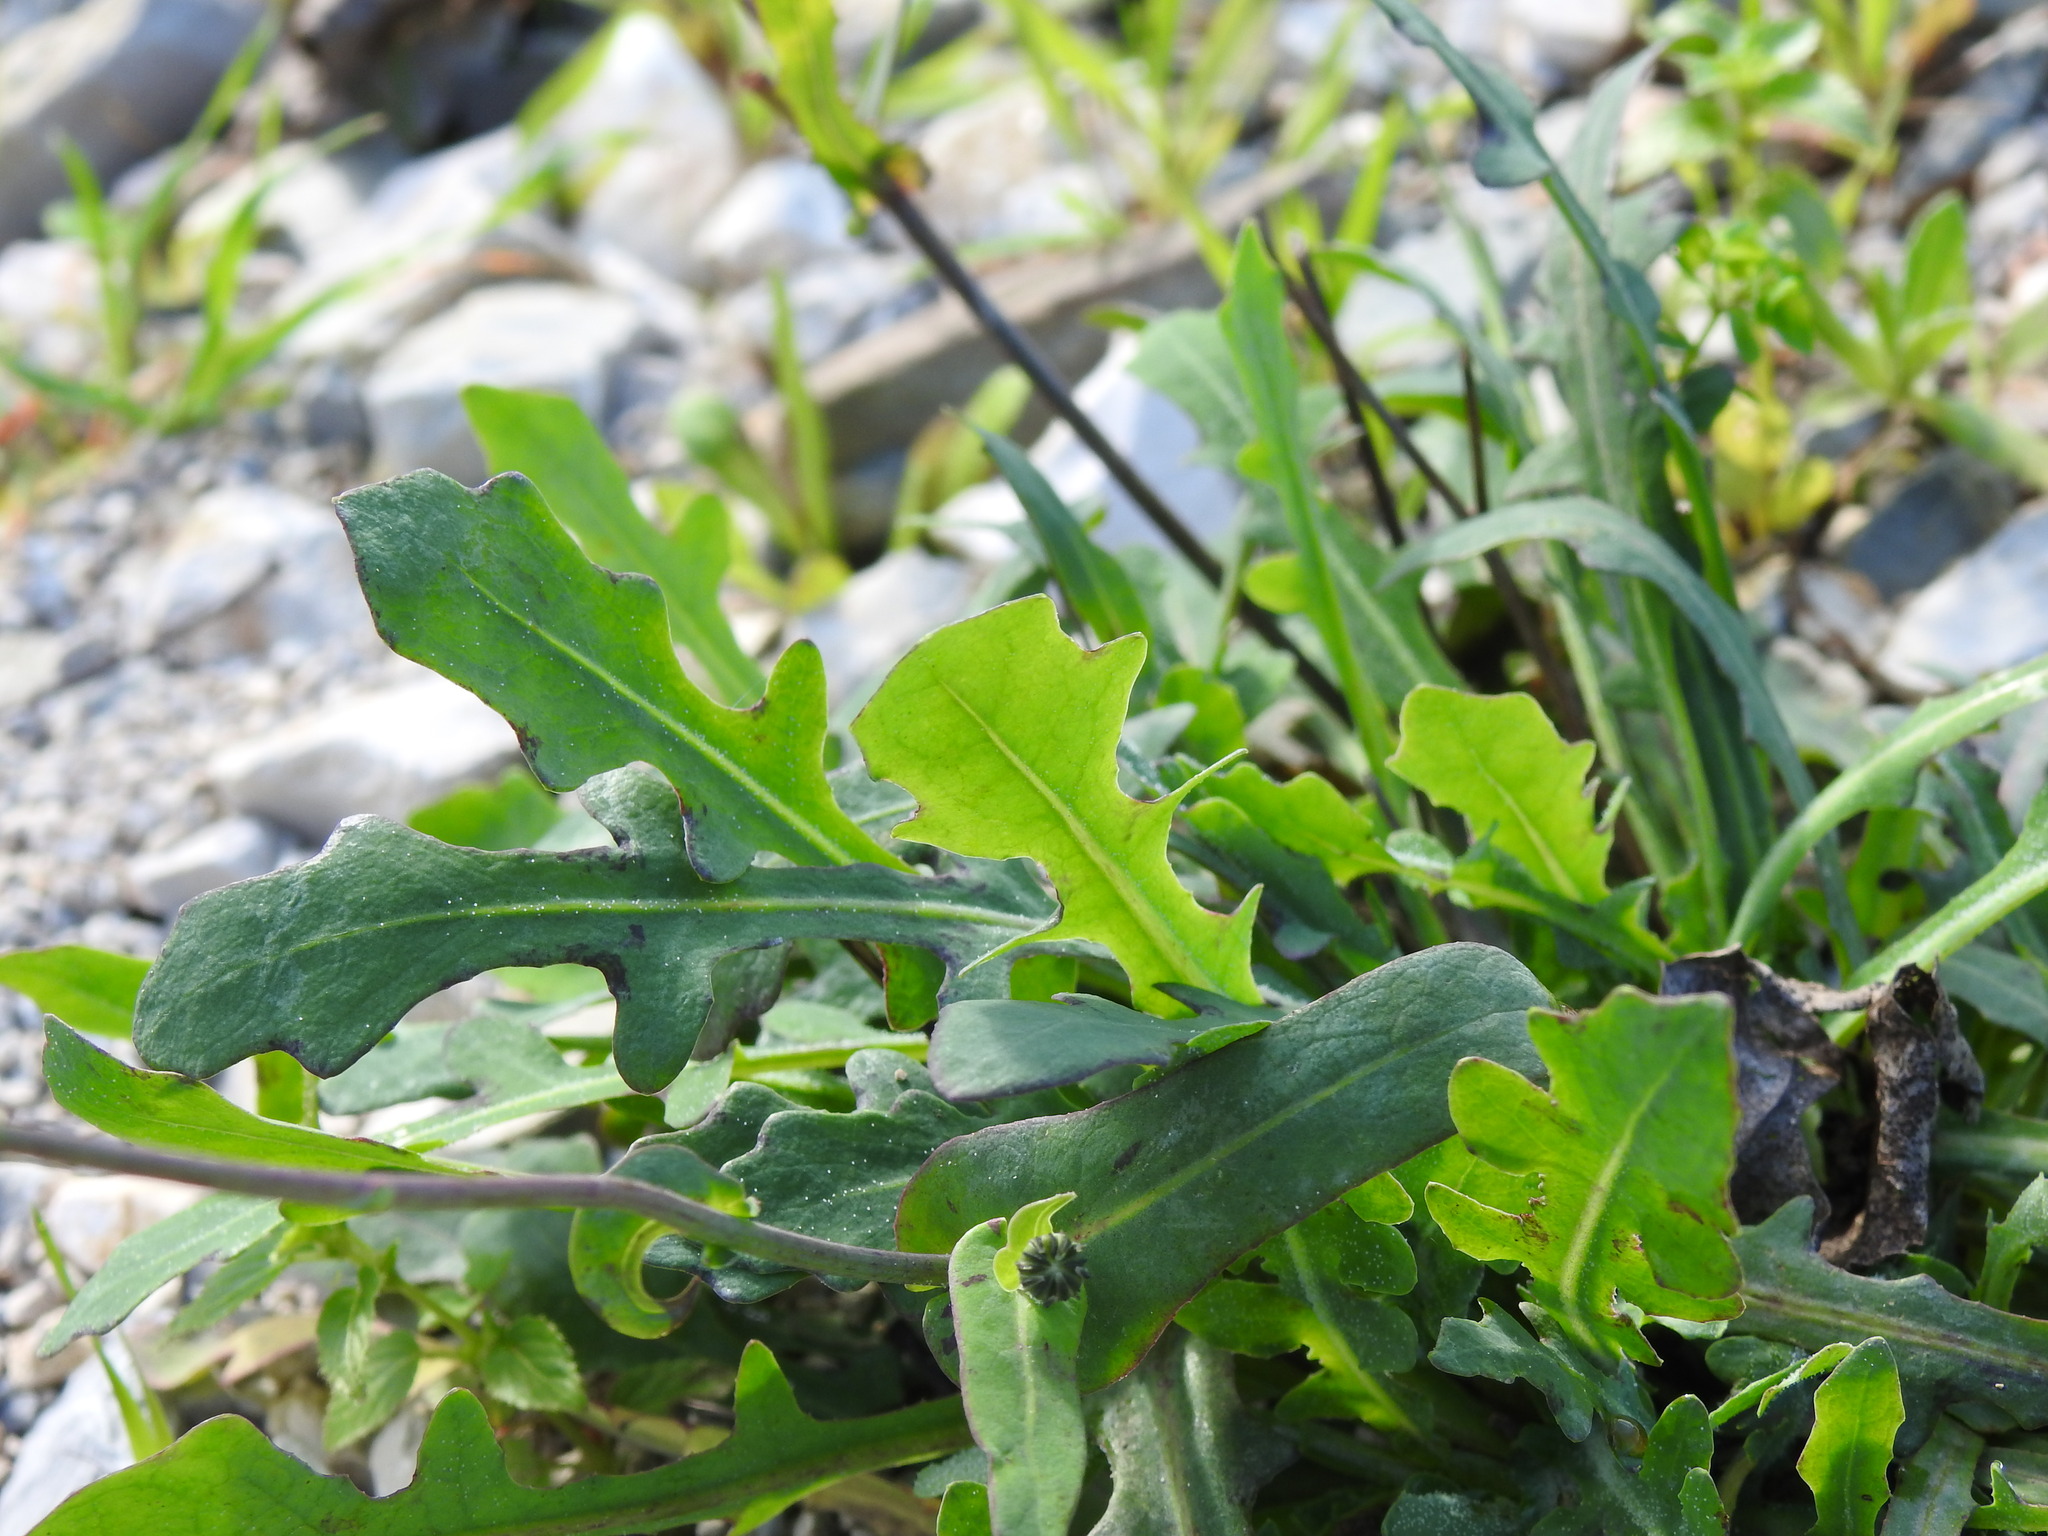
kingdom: Plantae
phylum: Tracheophyta
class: Magnoliopsida
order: Asterales
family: Asteraceae
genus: Reichardia
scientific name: Reichardia picroides
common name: Common brighteyes
